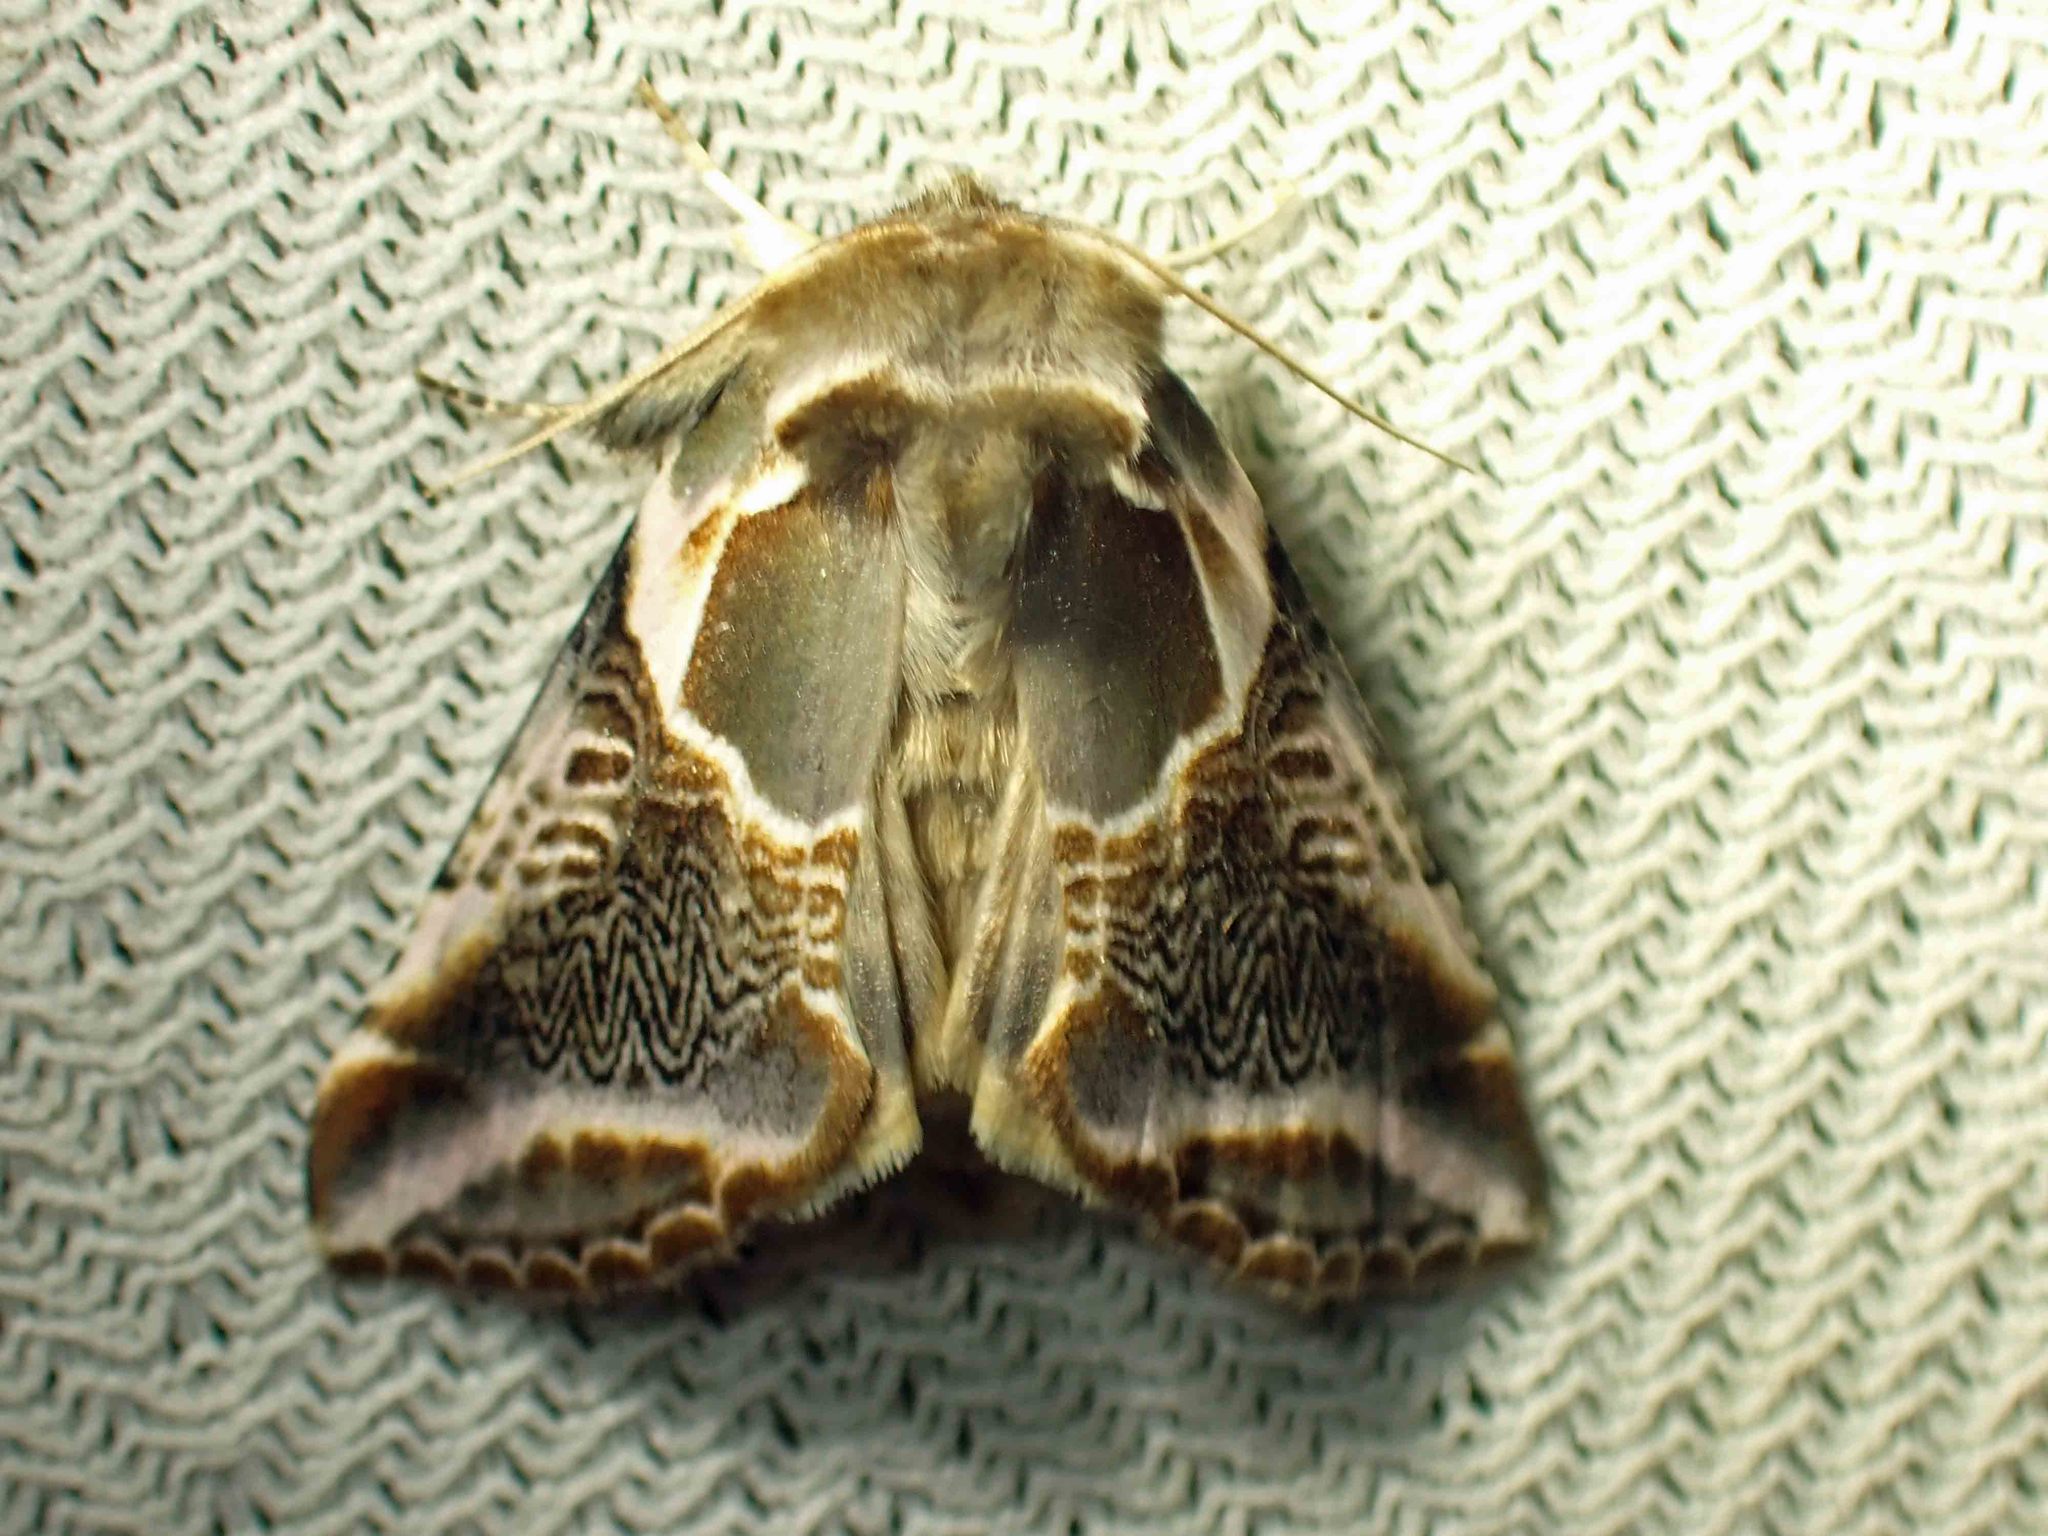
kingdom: Animalia
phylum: Arthropoda
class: Insecta
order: Lepidoptera
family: Drepanidae
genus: Habrosyne
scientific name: Habrosyne scripta
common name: Lettered habrosyne moth
